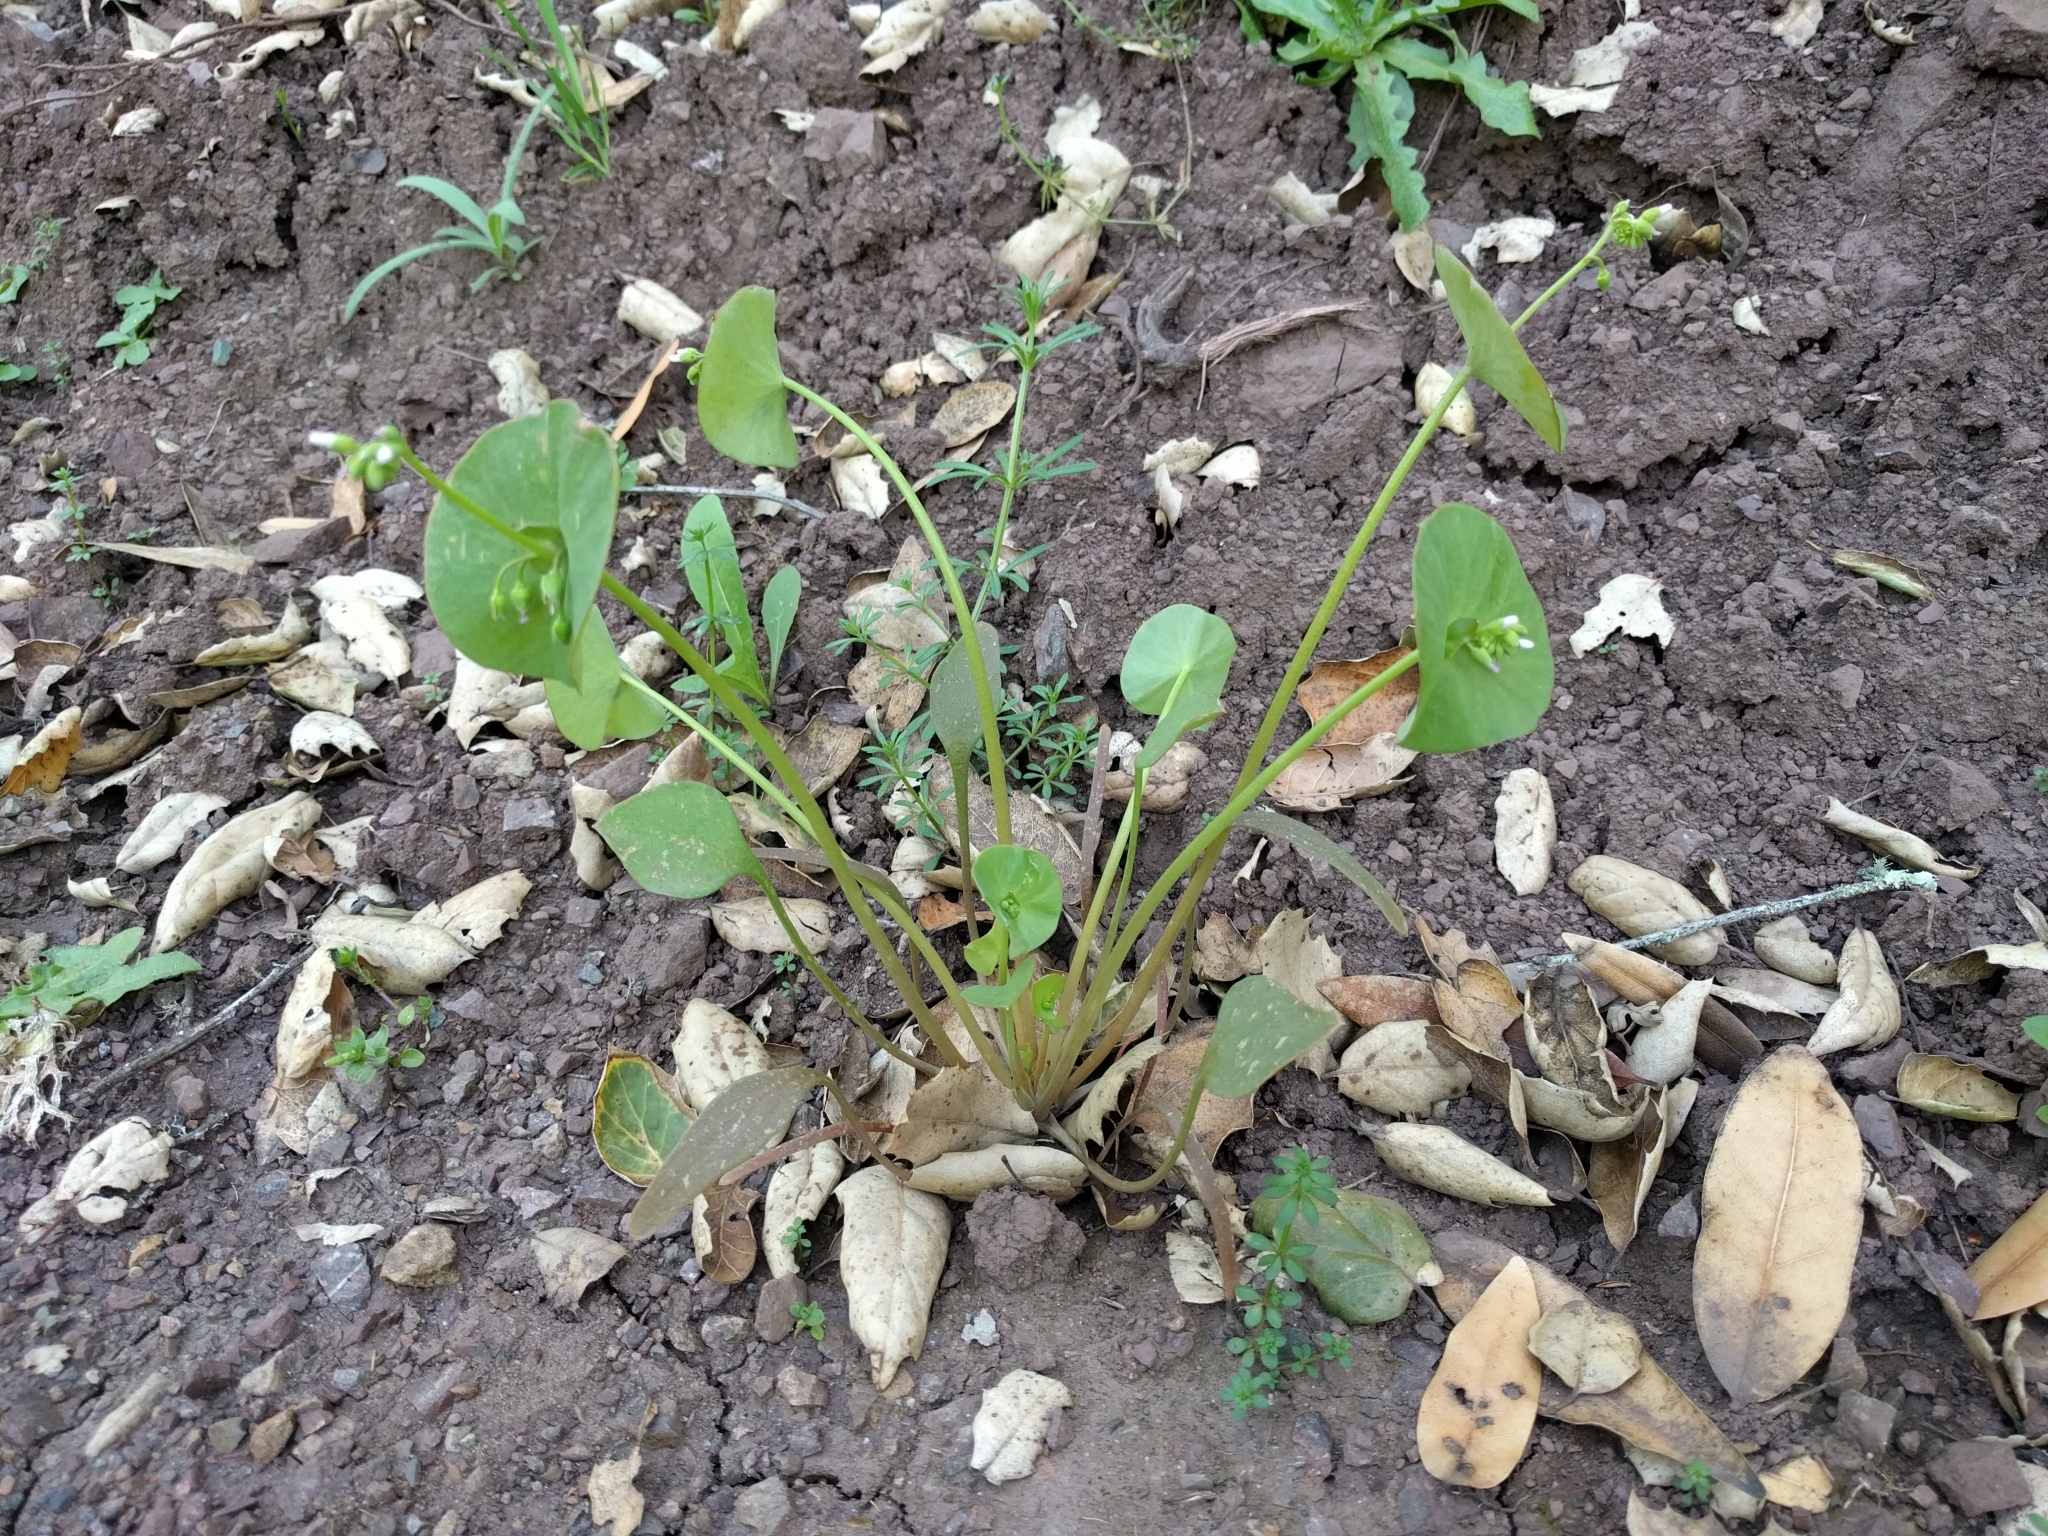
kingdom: Plantae
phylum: Tracheophyta
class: Magnoliopsida
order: Caryophyllales
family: Montiaceae
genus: Claytonia
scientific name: Claytonia perfoliata
